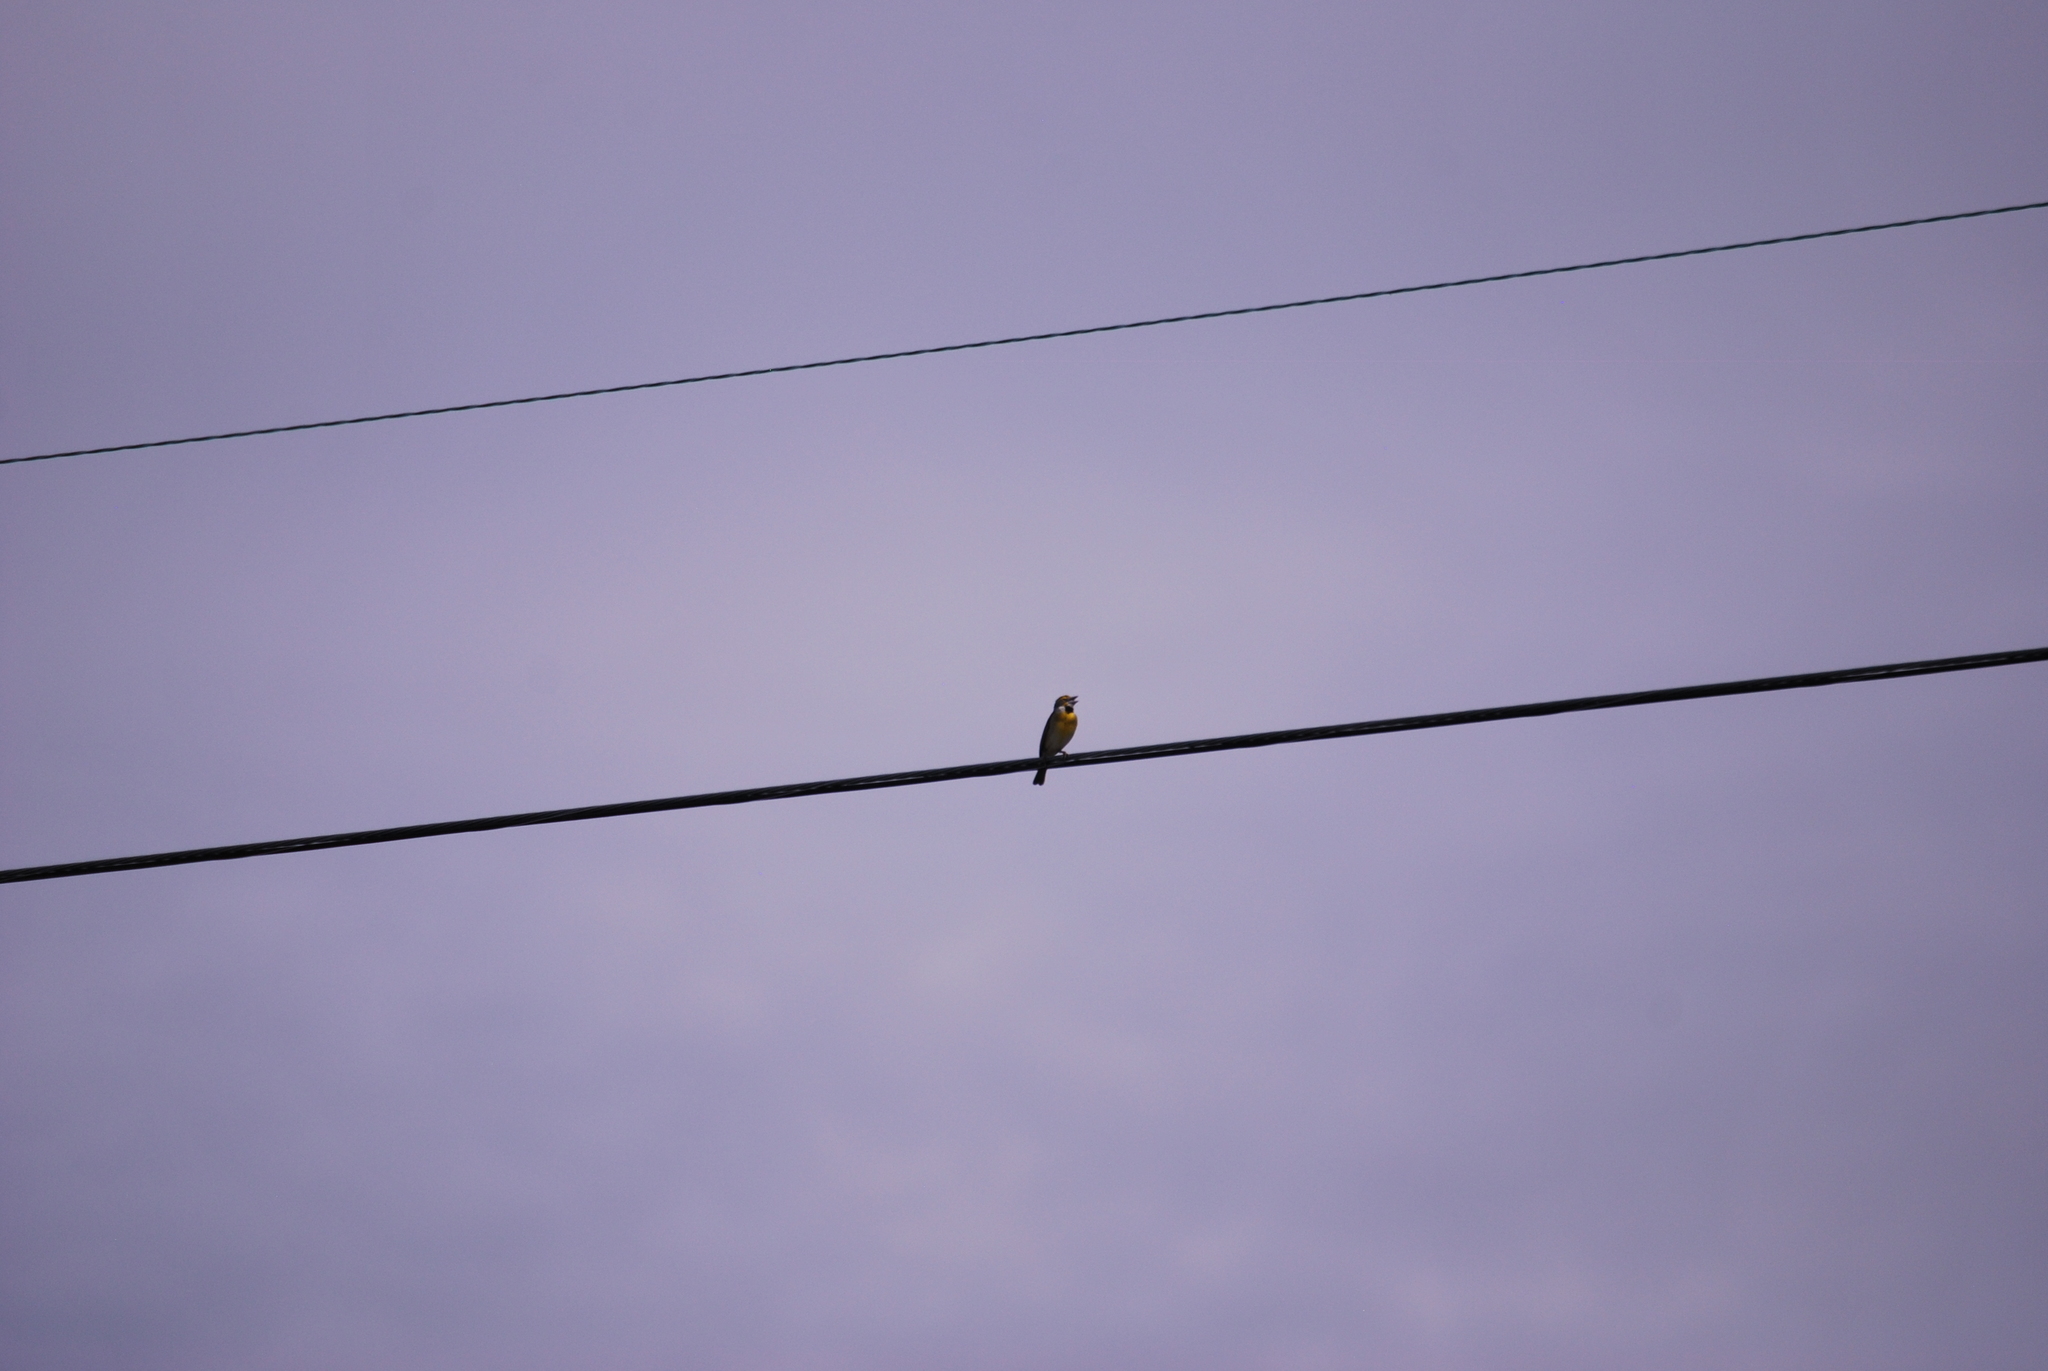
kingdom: Animalia
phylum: Chordata
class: Aves
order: Passeriformes
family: Cardinalidae
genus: Spiza
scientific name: Spiza americana
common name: Dickcissel
